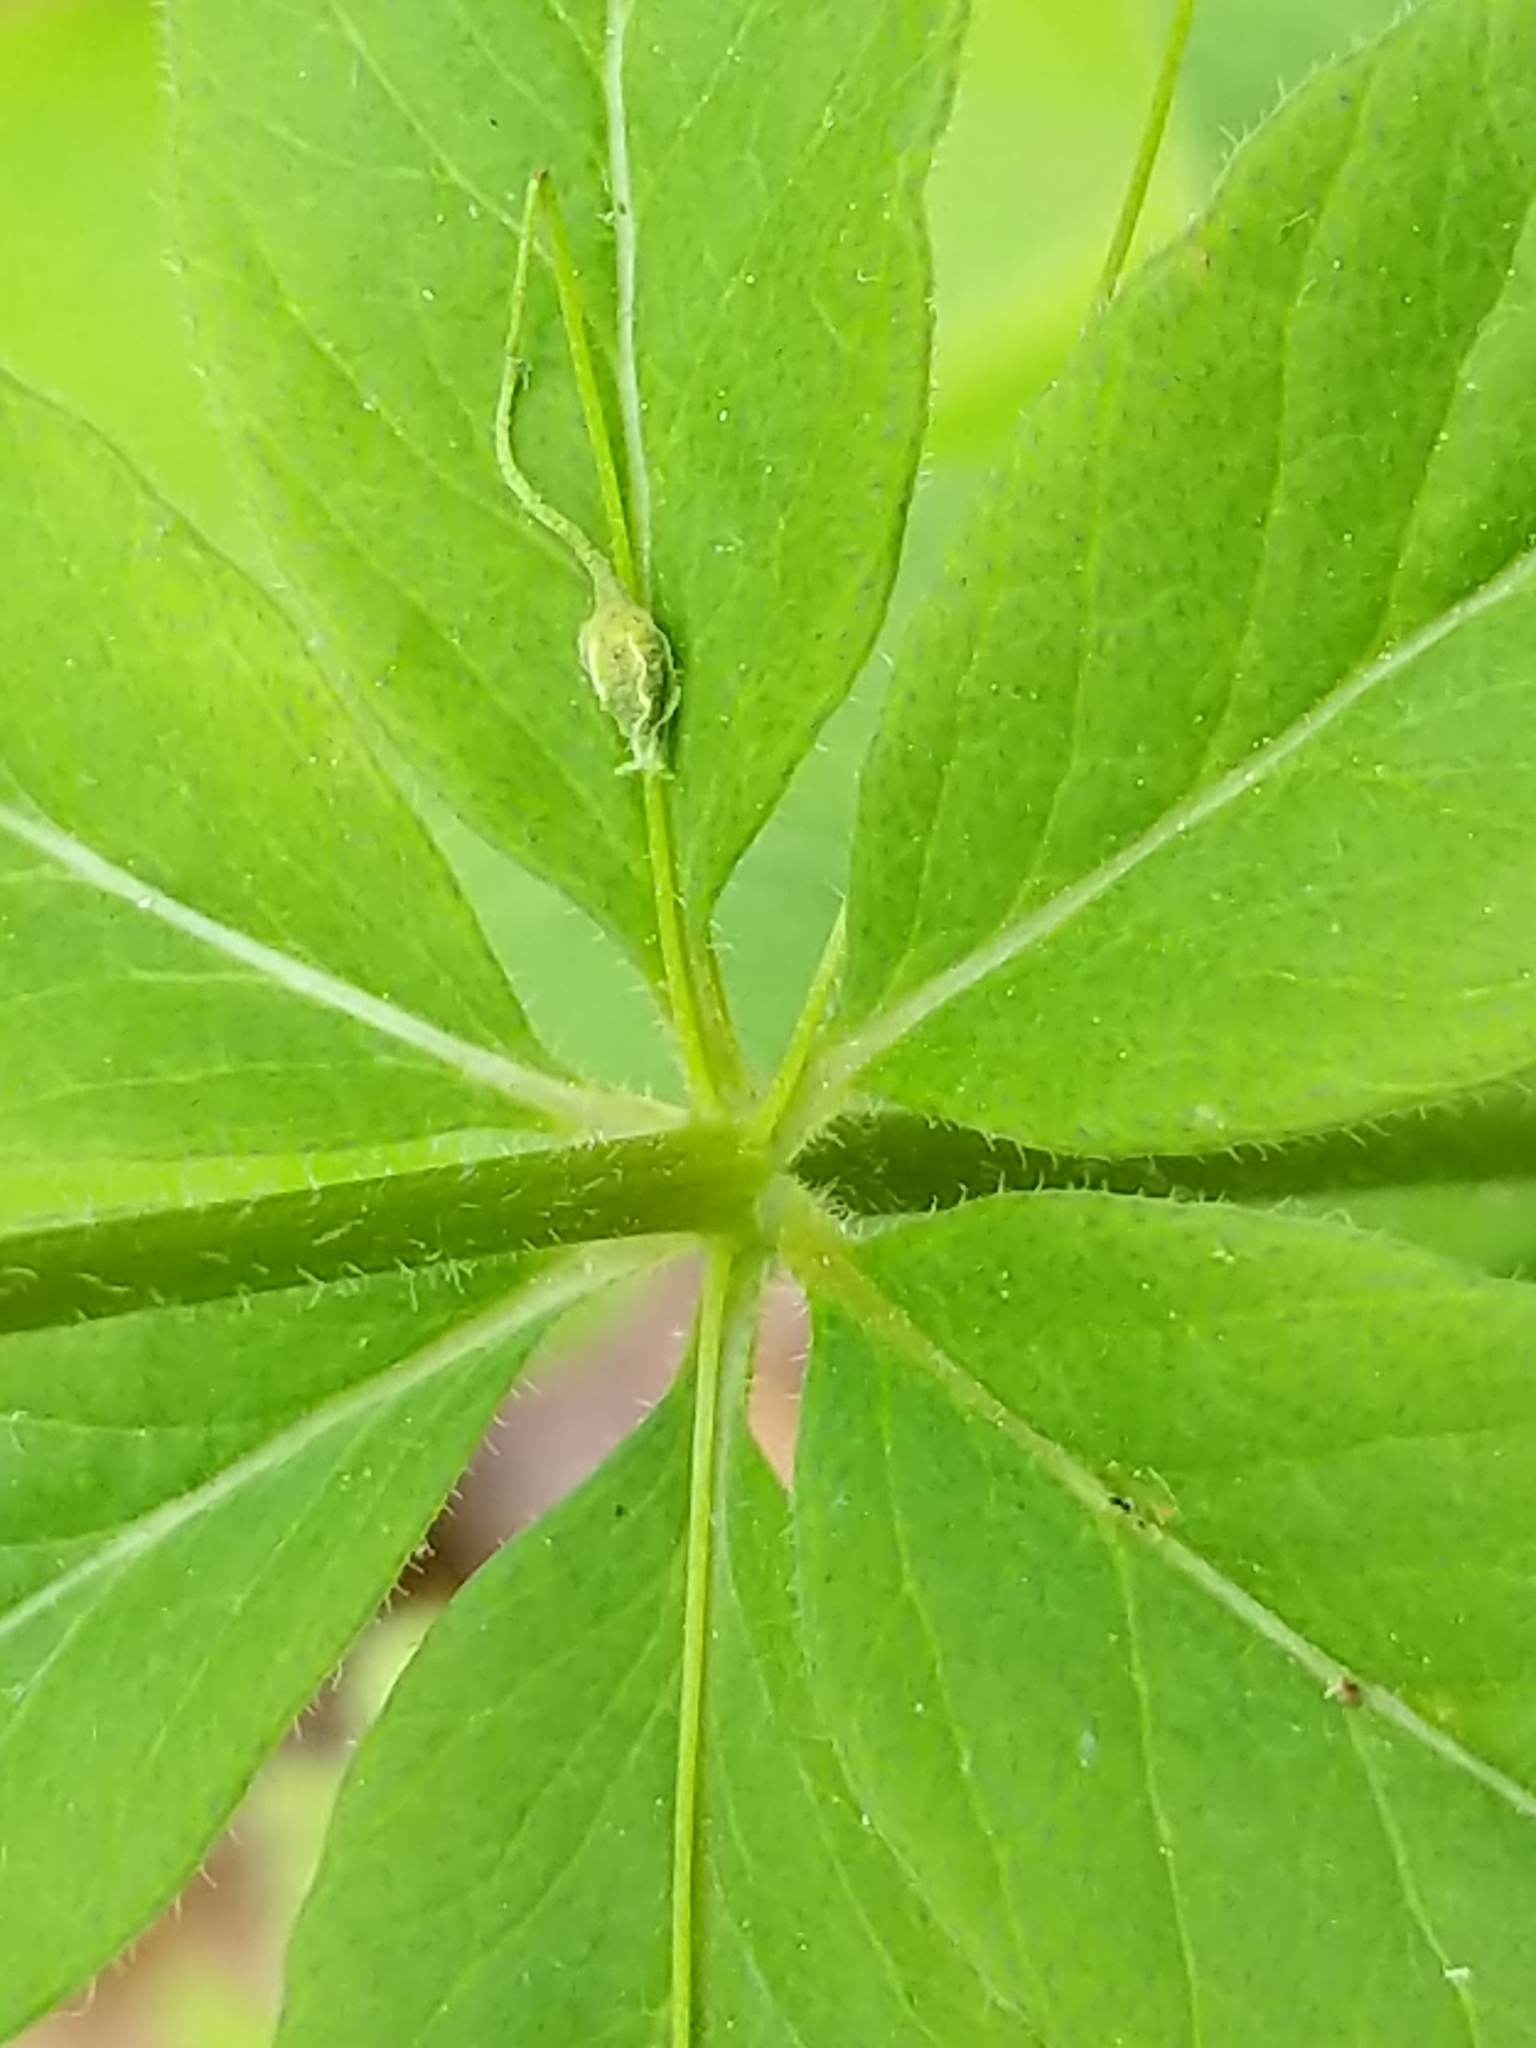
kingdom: Plantae
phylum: Tracheophyta
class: Magnoliopsida
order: Ericales
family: Primulaceae
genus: Lysimachia
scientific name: Lysimachia quadrifolia
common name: Whorled loosestrife
